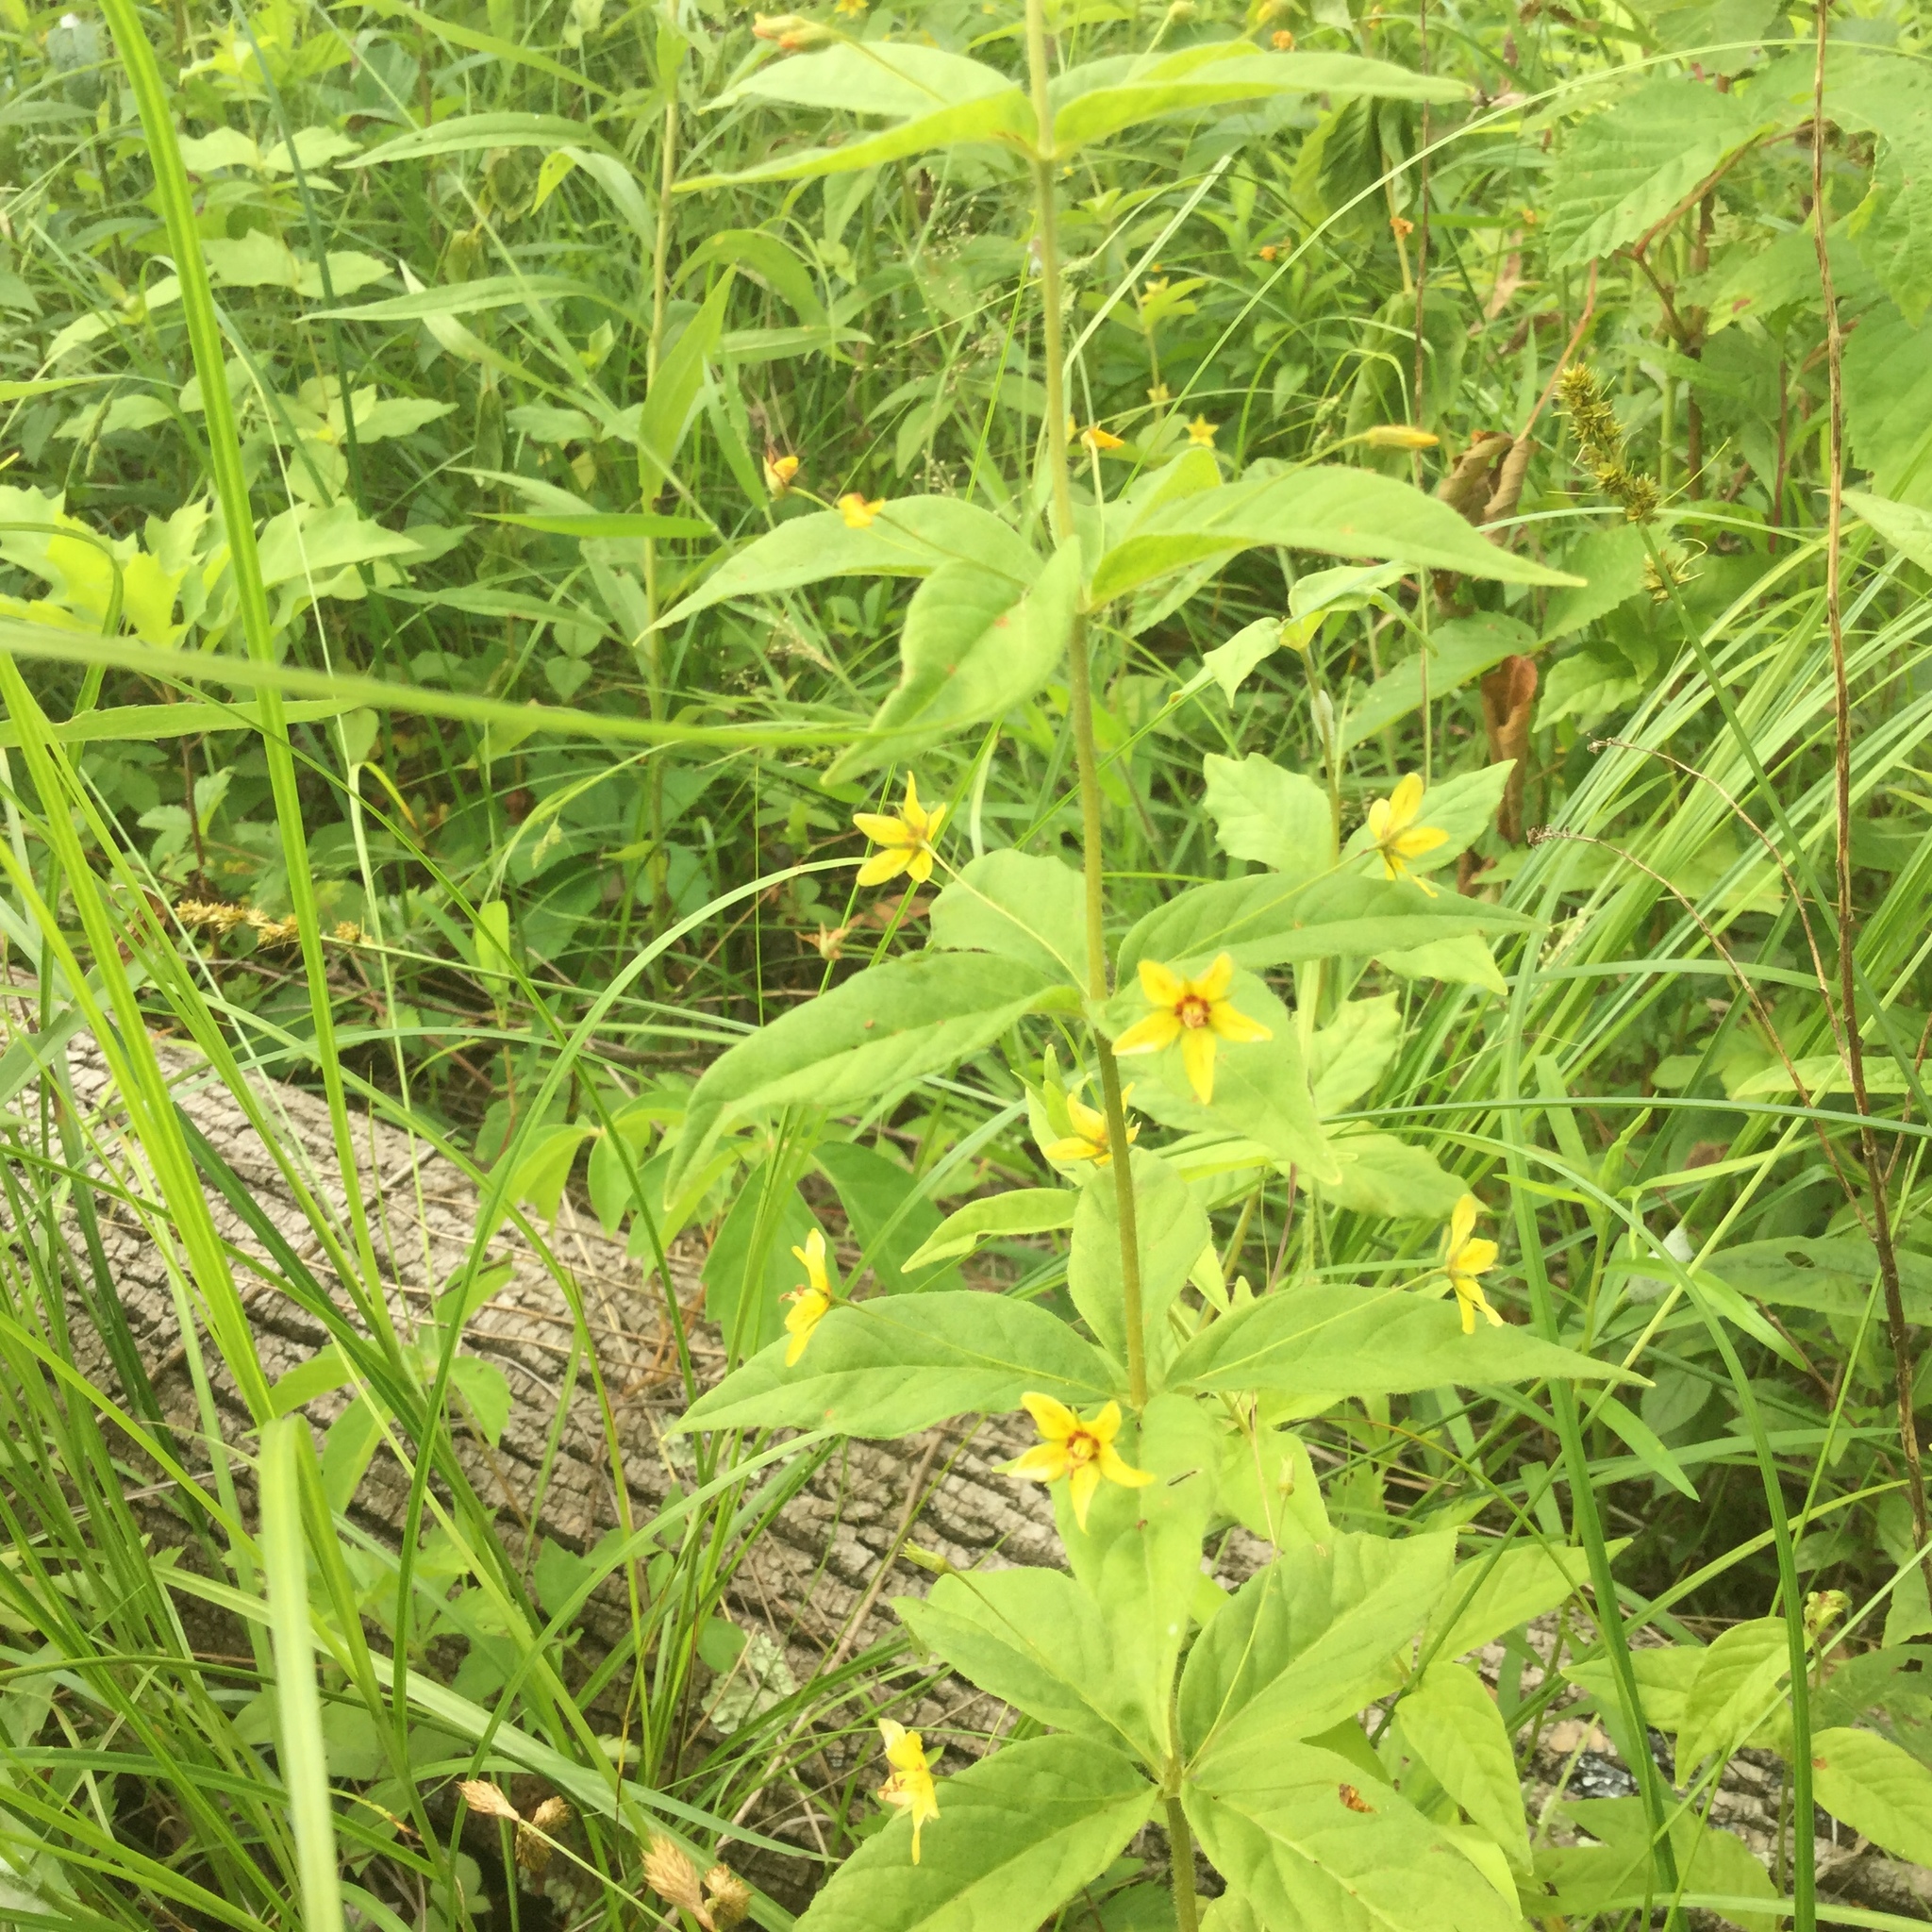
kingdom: Plantae
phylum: Tracheophyta
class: Magnoliopsida
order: Ericales
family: Primulaceae
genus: Lysimachia
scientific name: Lysimachia quadrifolia
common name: Whorled loosestrife
